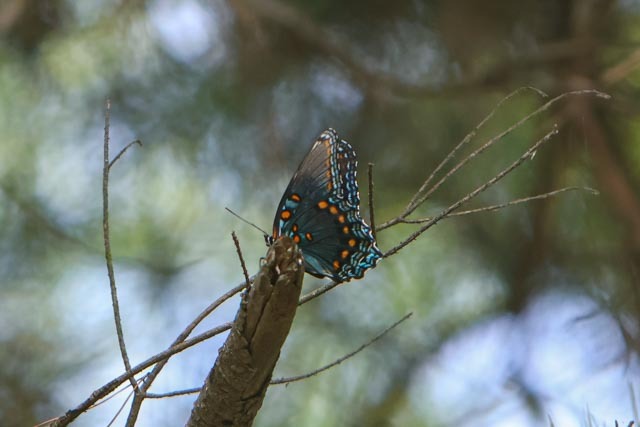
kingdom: Animalia
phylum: Arthropoda
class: Insecta
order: Lepidoptera
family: Nymphalidae
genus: Limenitis
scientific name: Limenitis arthemis
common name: Red-spotted admiral
